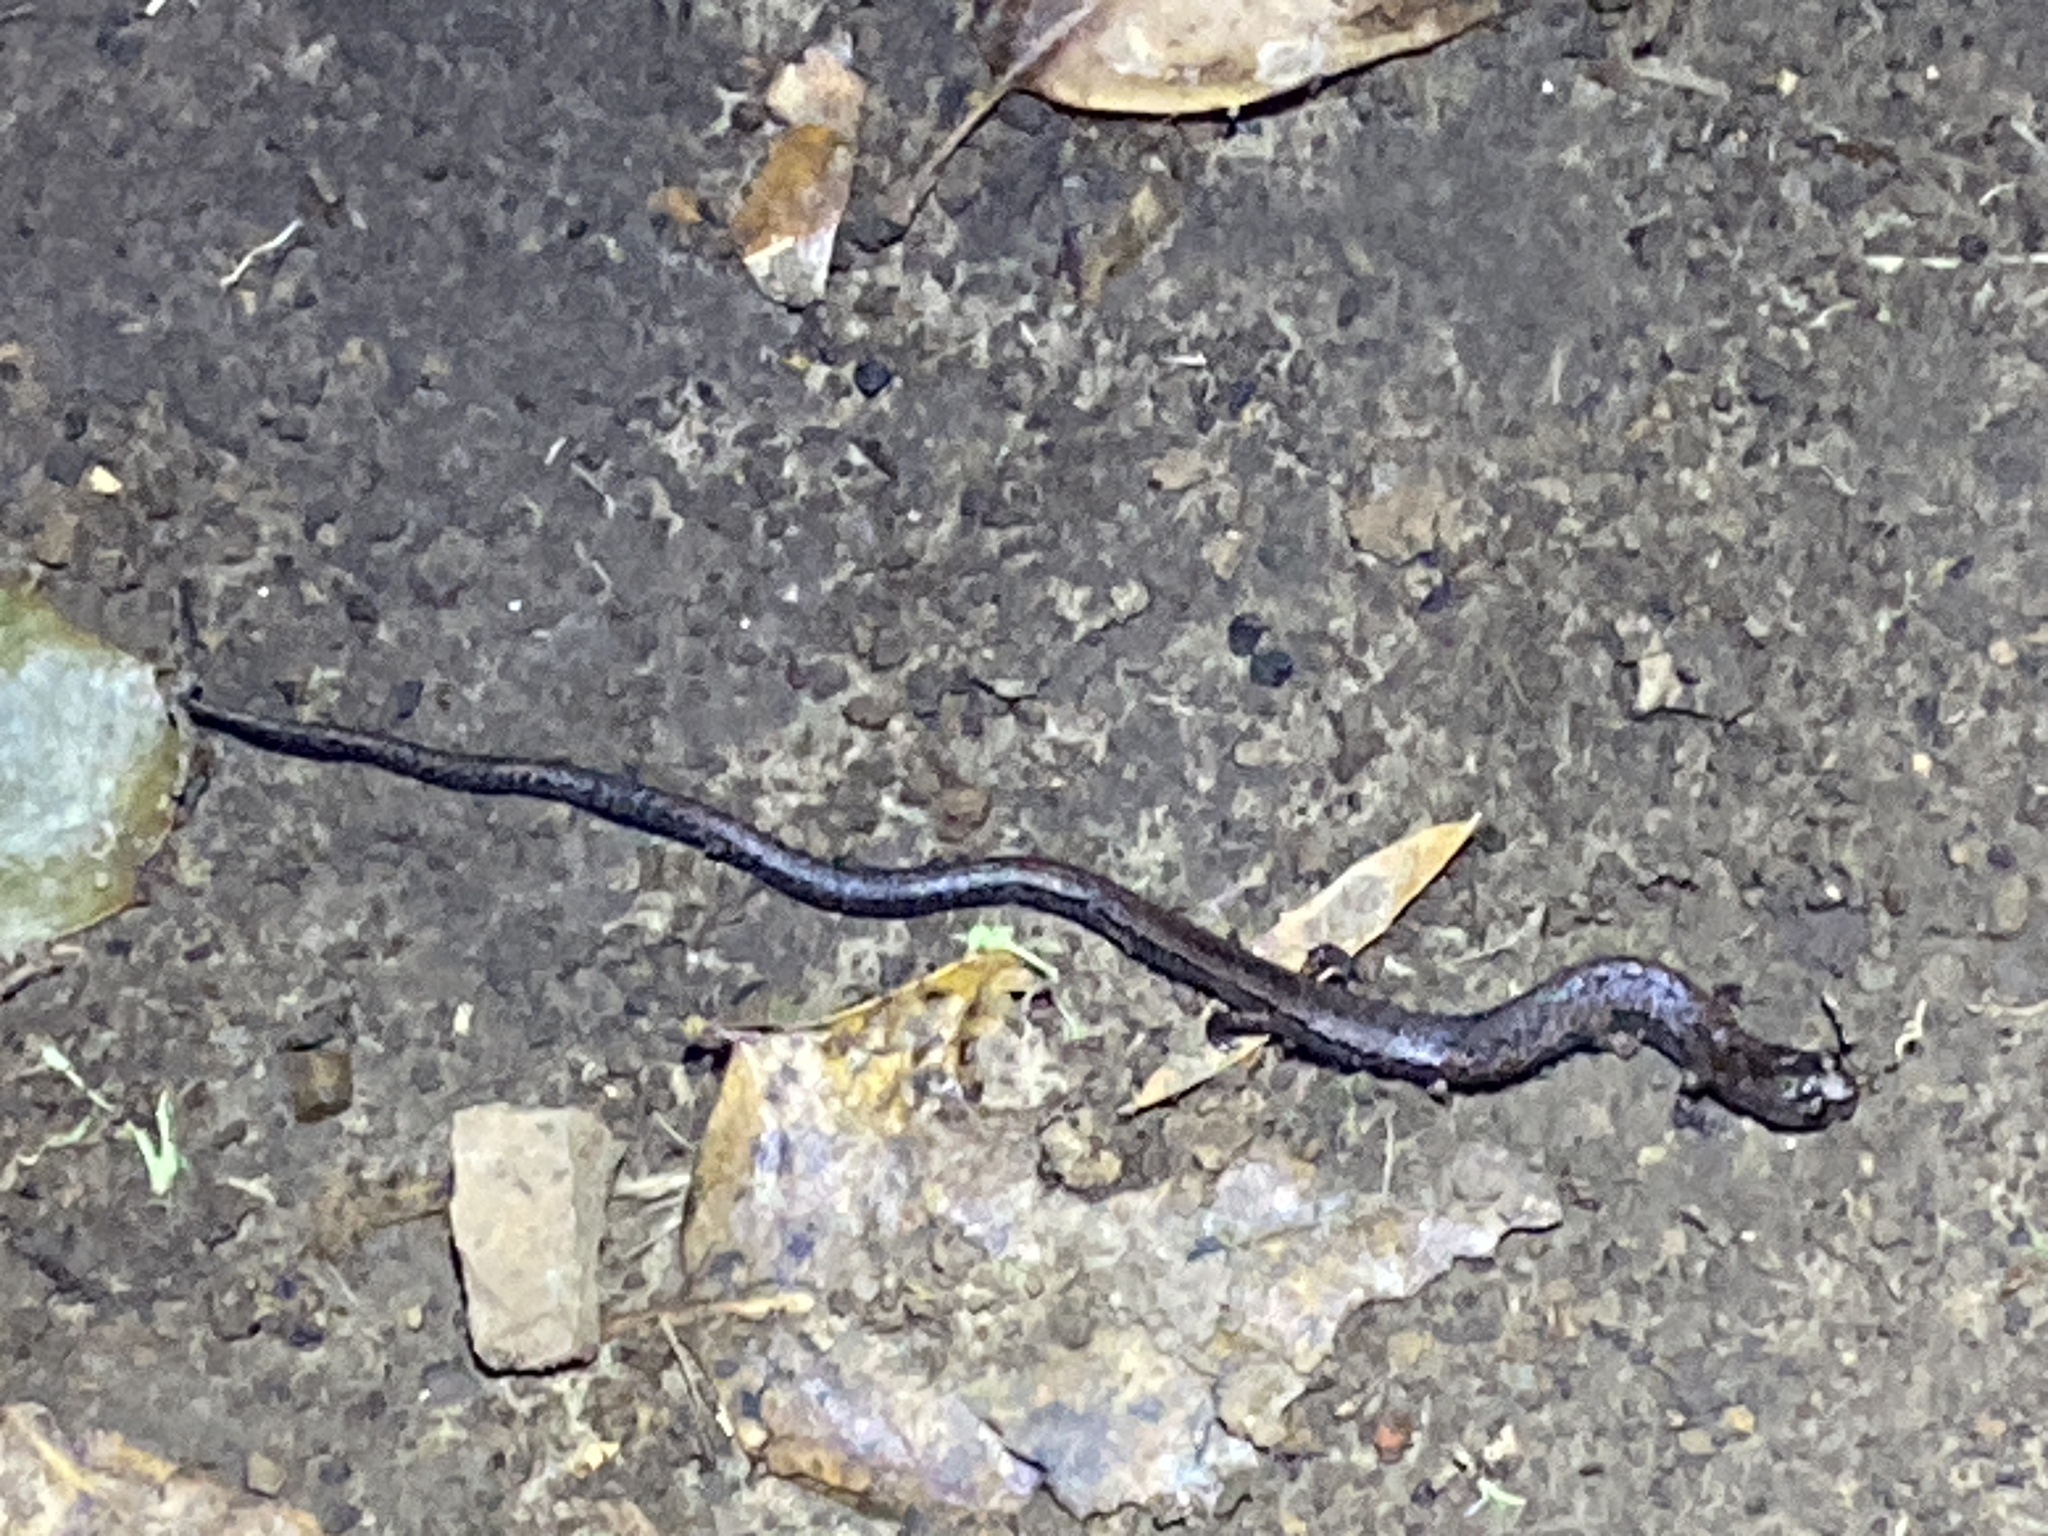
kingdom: Animalia
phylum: Chordata
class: Amphibia
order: Caudata
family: Plethodontidae
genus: Batrachoseps
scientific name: Batrachoseps attenuatus
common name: California slender salamander
